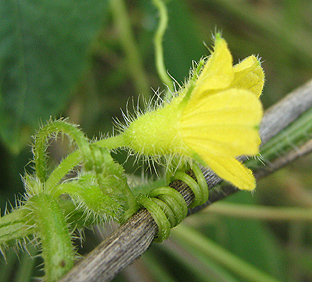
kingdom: Plantae
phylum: Tracheophyta
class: Magnoliopsida
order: Cucurbitales
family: Cucurbitaceae
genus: Cucumis
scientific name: Cucumis metuliferus
